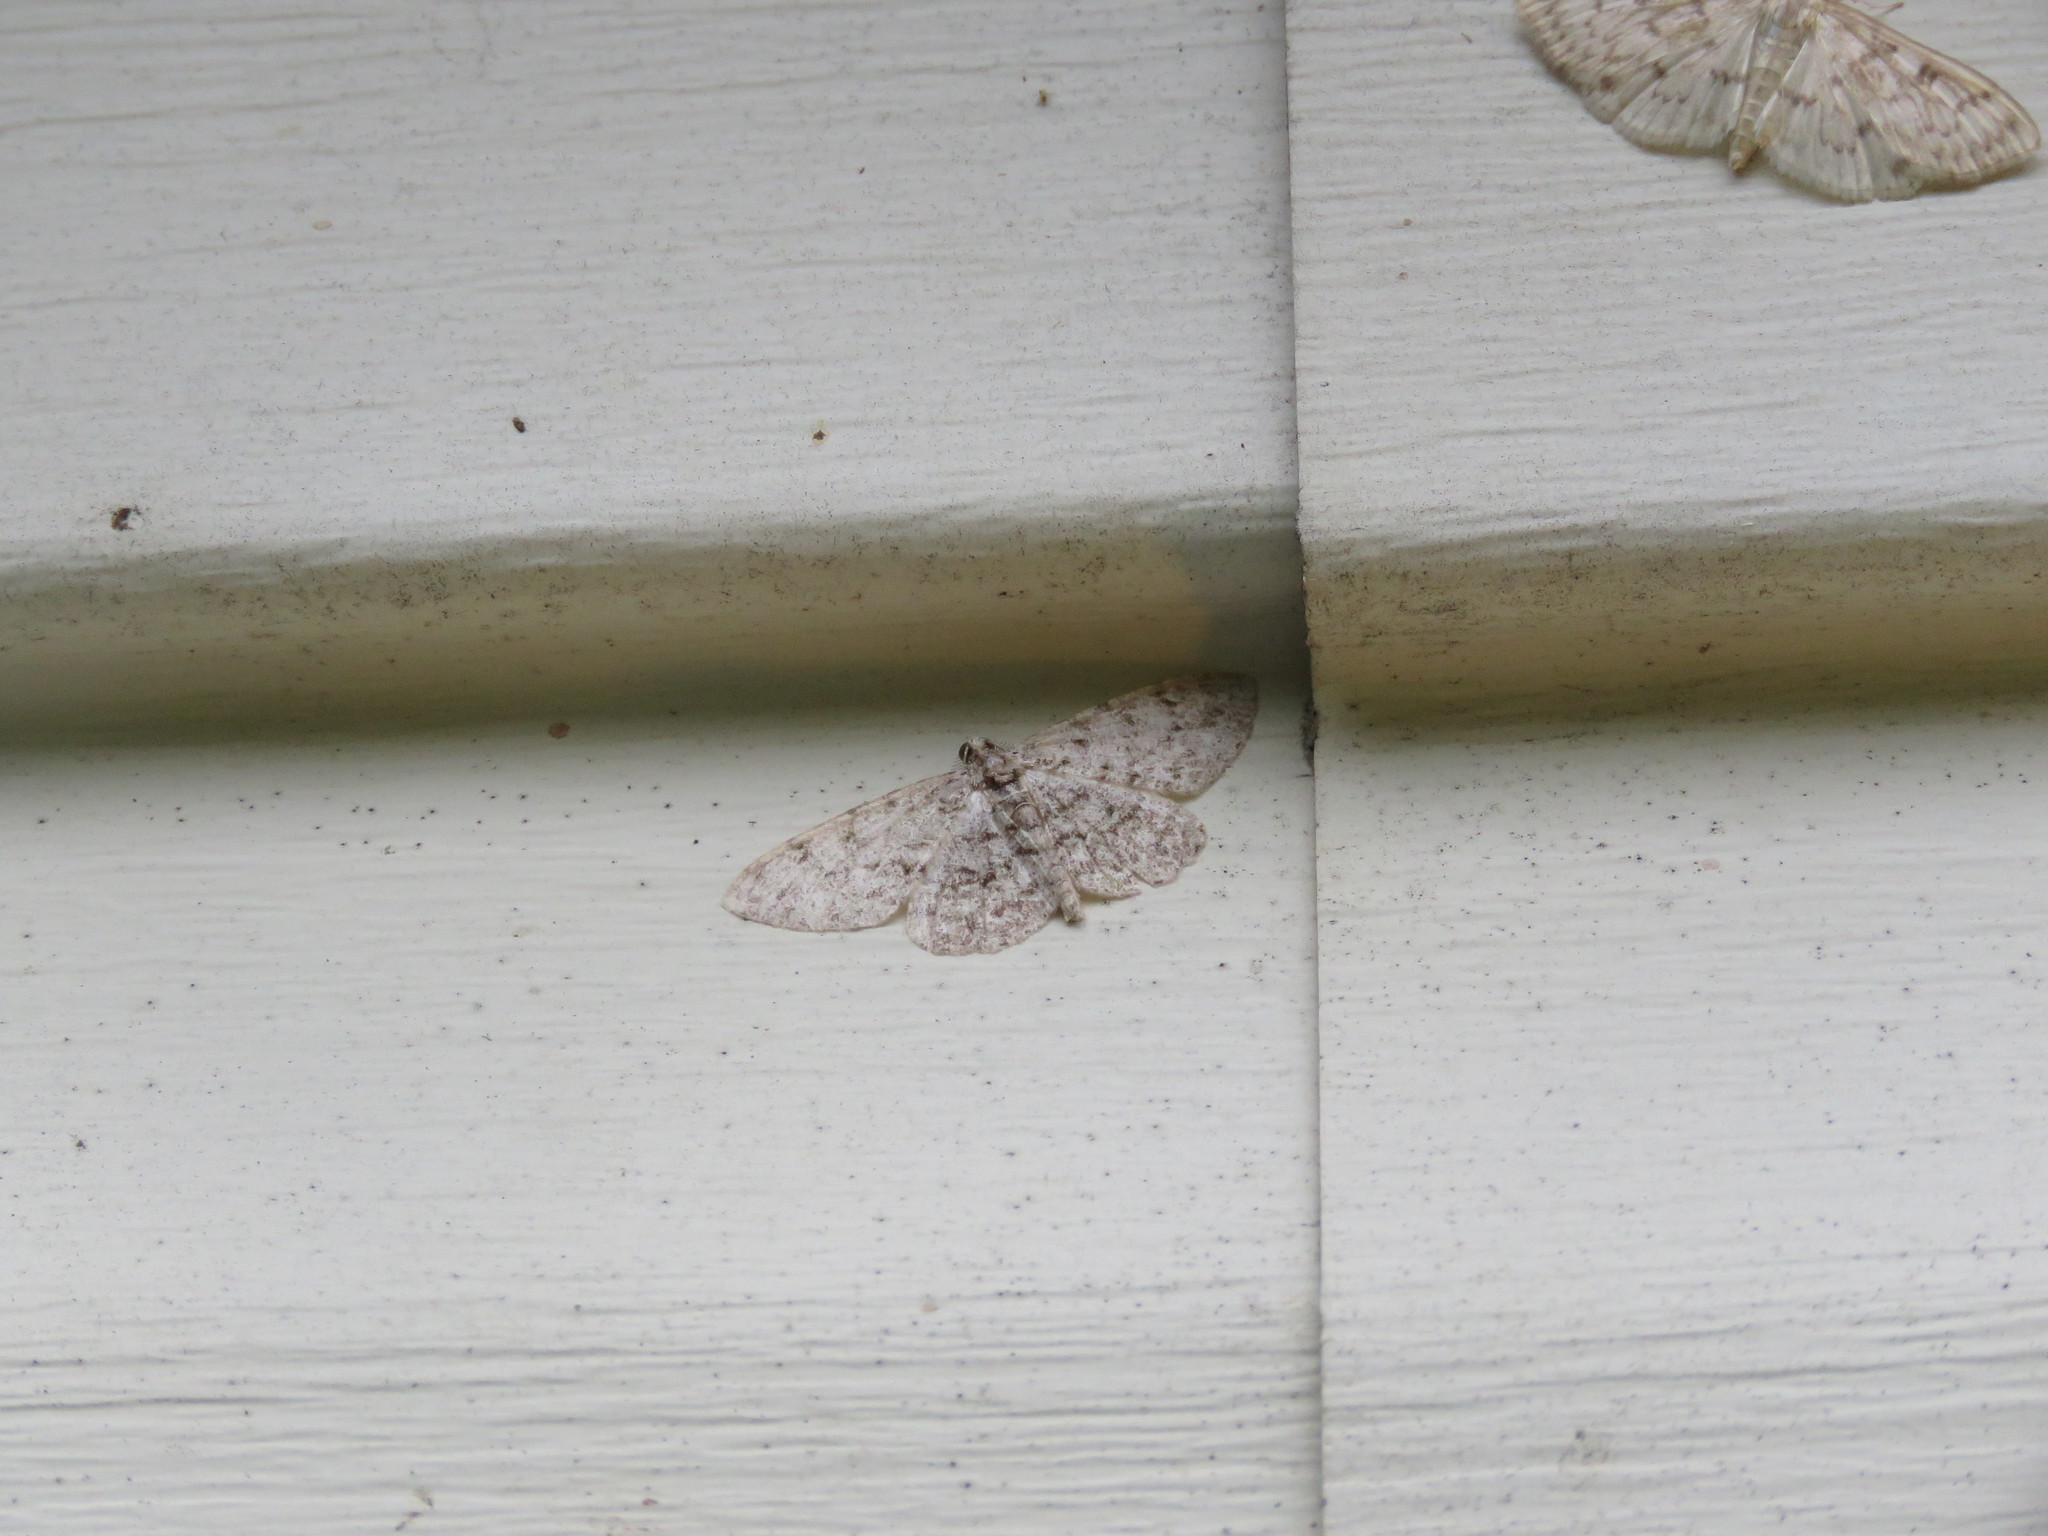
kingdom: Animalia
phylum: Arthropoda
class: Insecta
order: Lepidoptera
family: Geometridae
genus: Protoboarmia
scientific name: Protoboarmia porcelaria
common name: Porcelain gray
